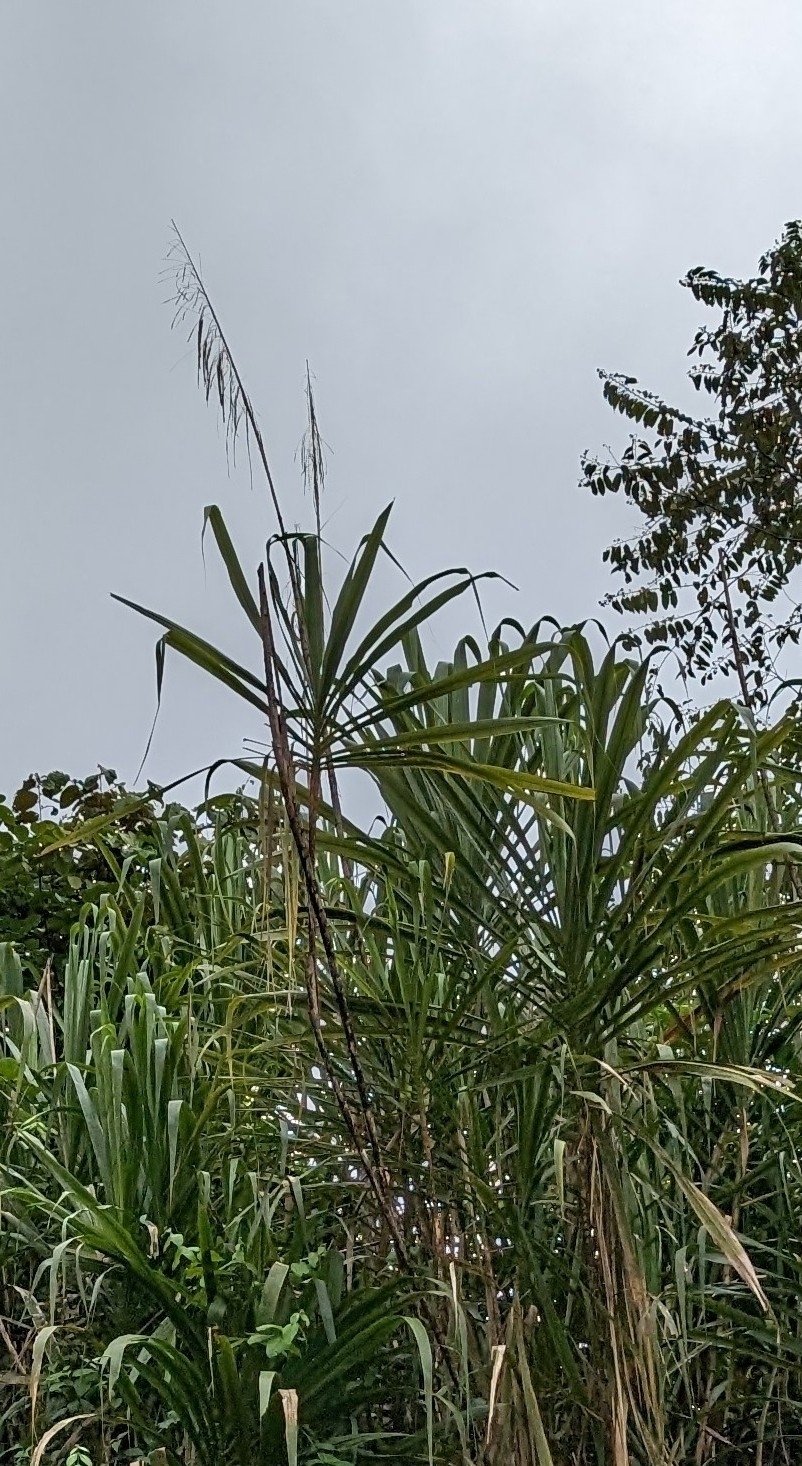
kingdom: Plantae
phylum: Tracheophyta
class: Liliopsida
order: Poales
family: Poaceae
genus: Gynerium
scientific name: Gynerium sagittatum
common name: Wild cane
